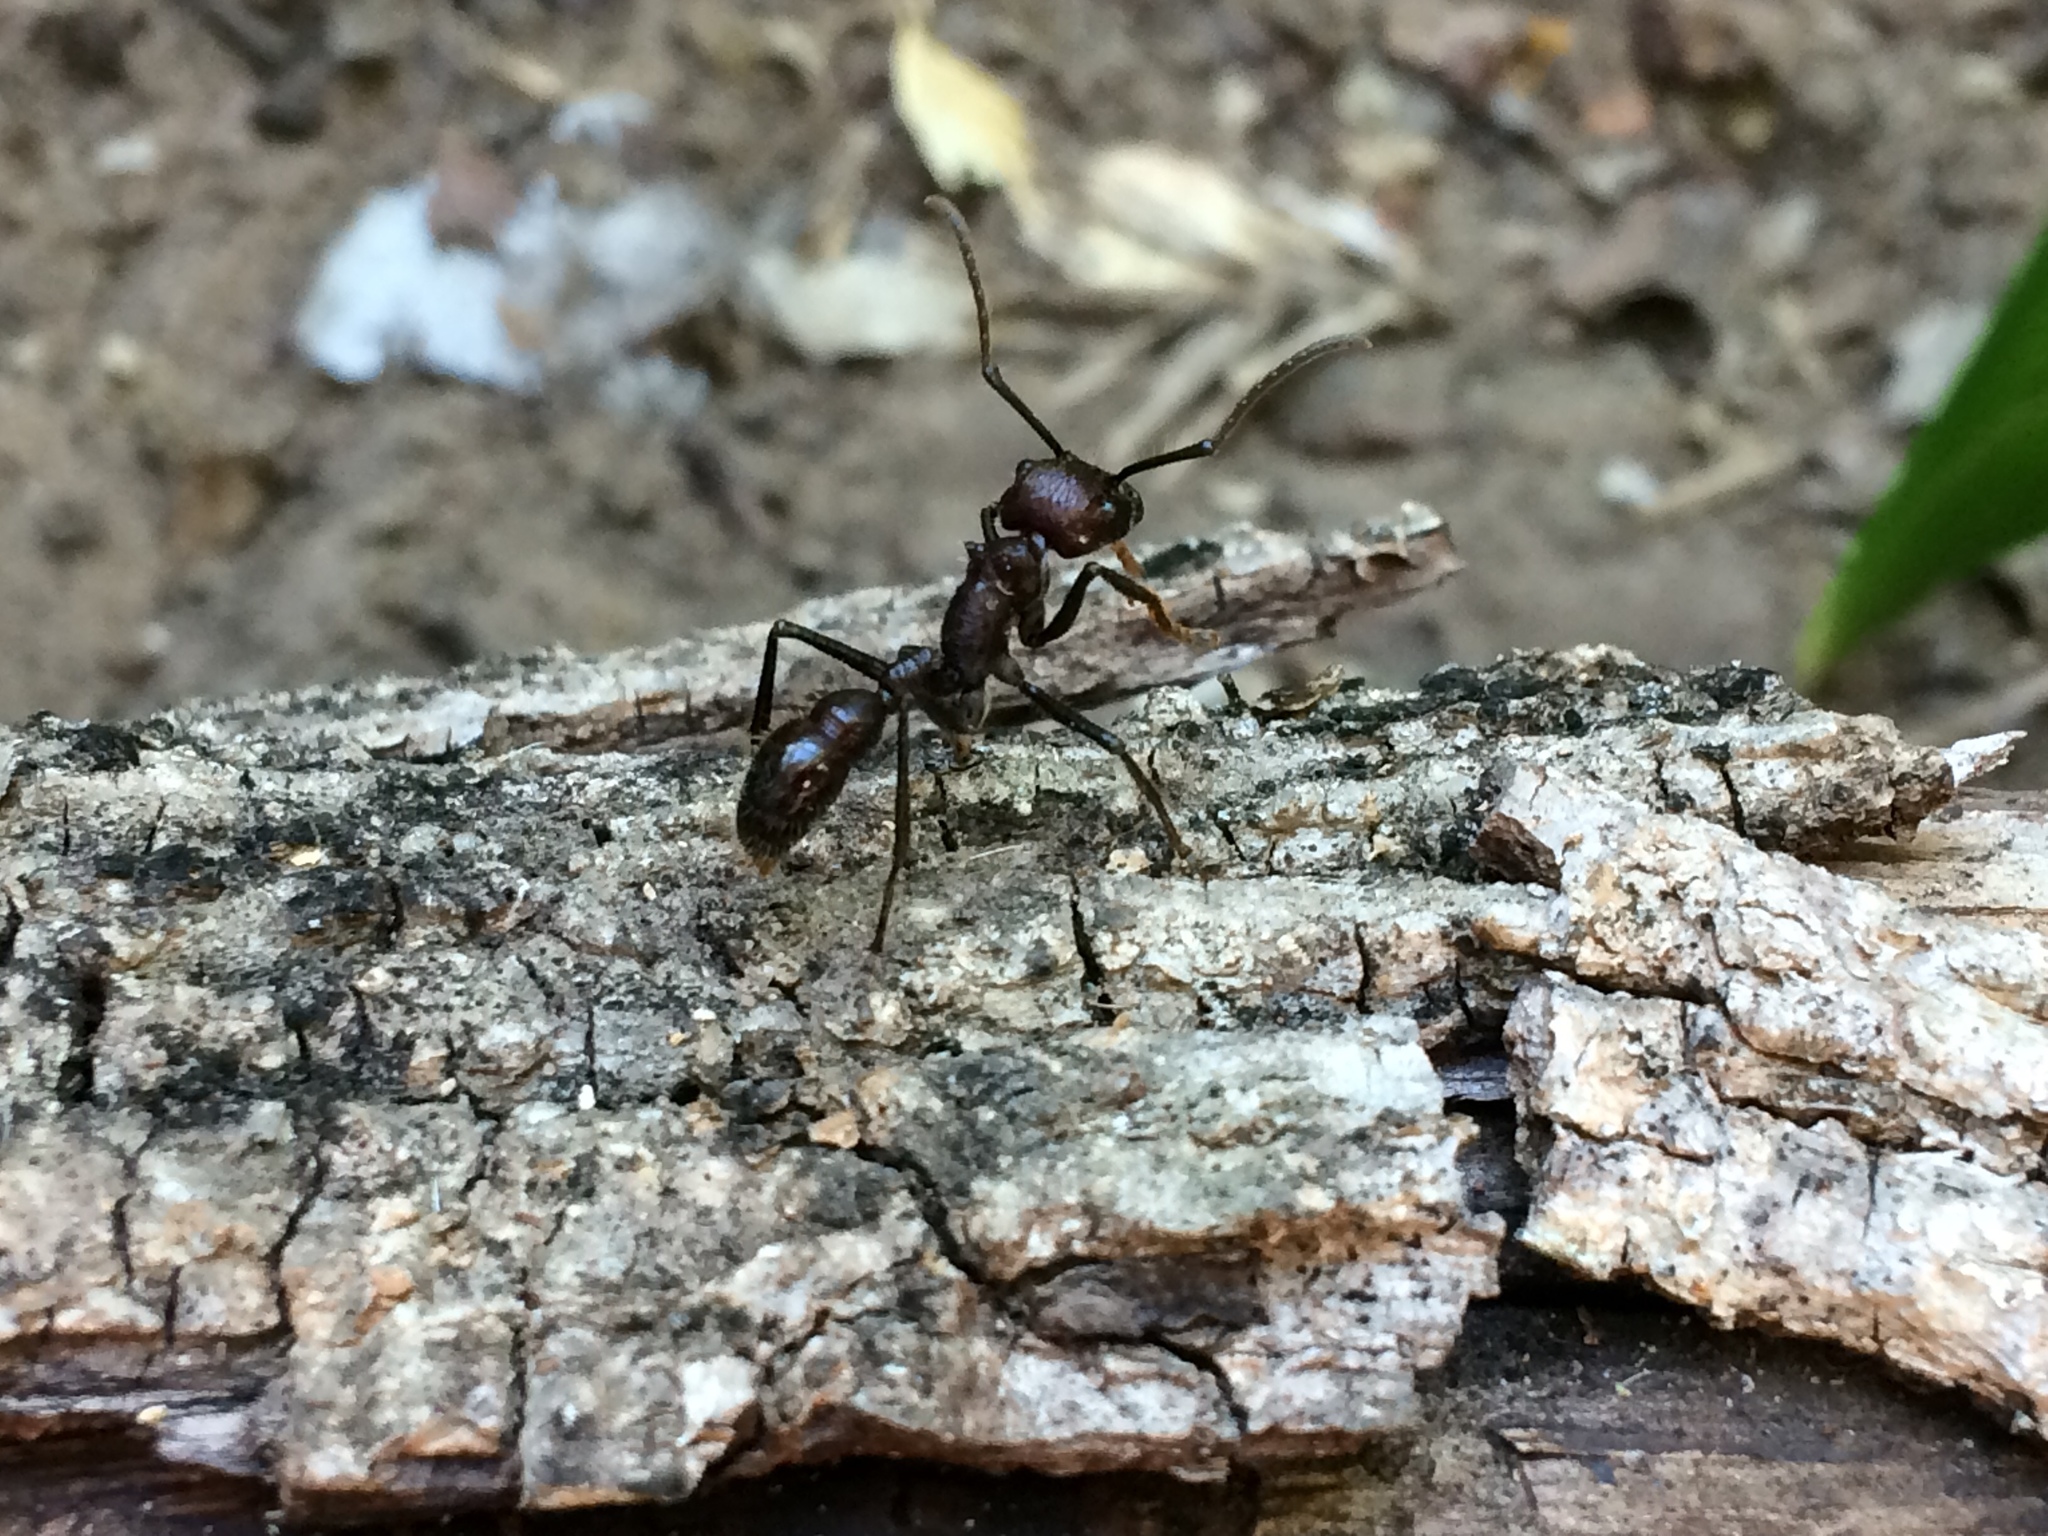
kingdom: Animalia
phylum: Arthropoda
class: Insecta
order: Hymenoptera
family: Formicidae
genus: Paraponera
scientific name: Paraponera clavata
